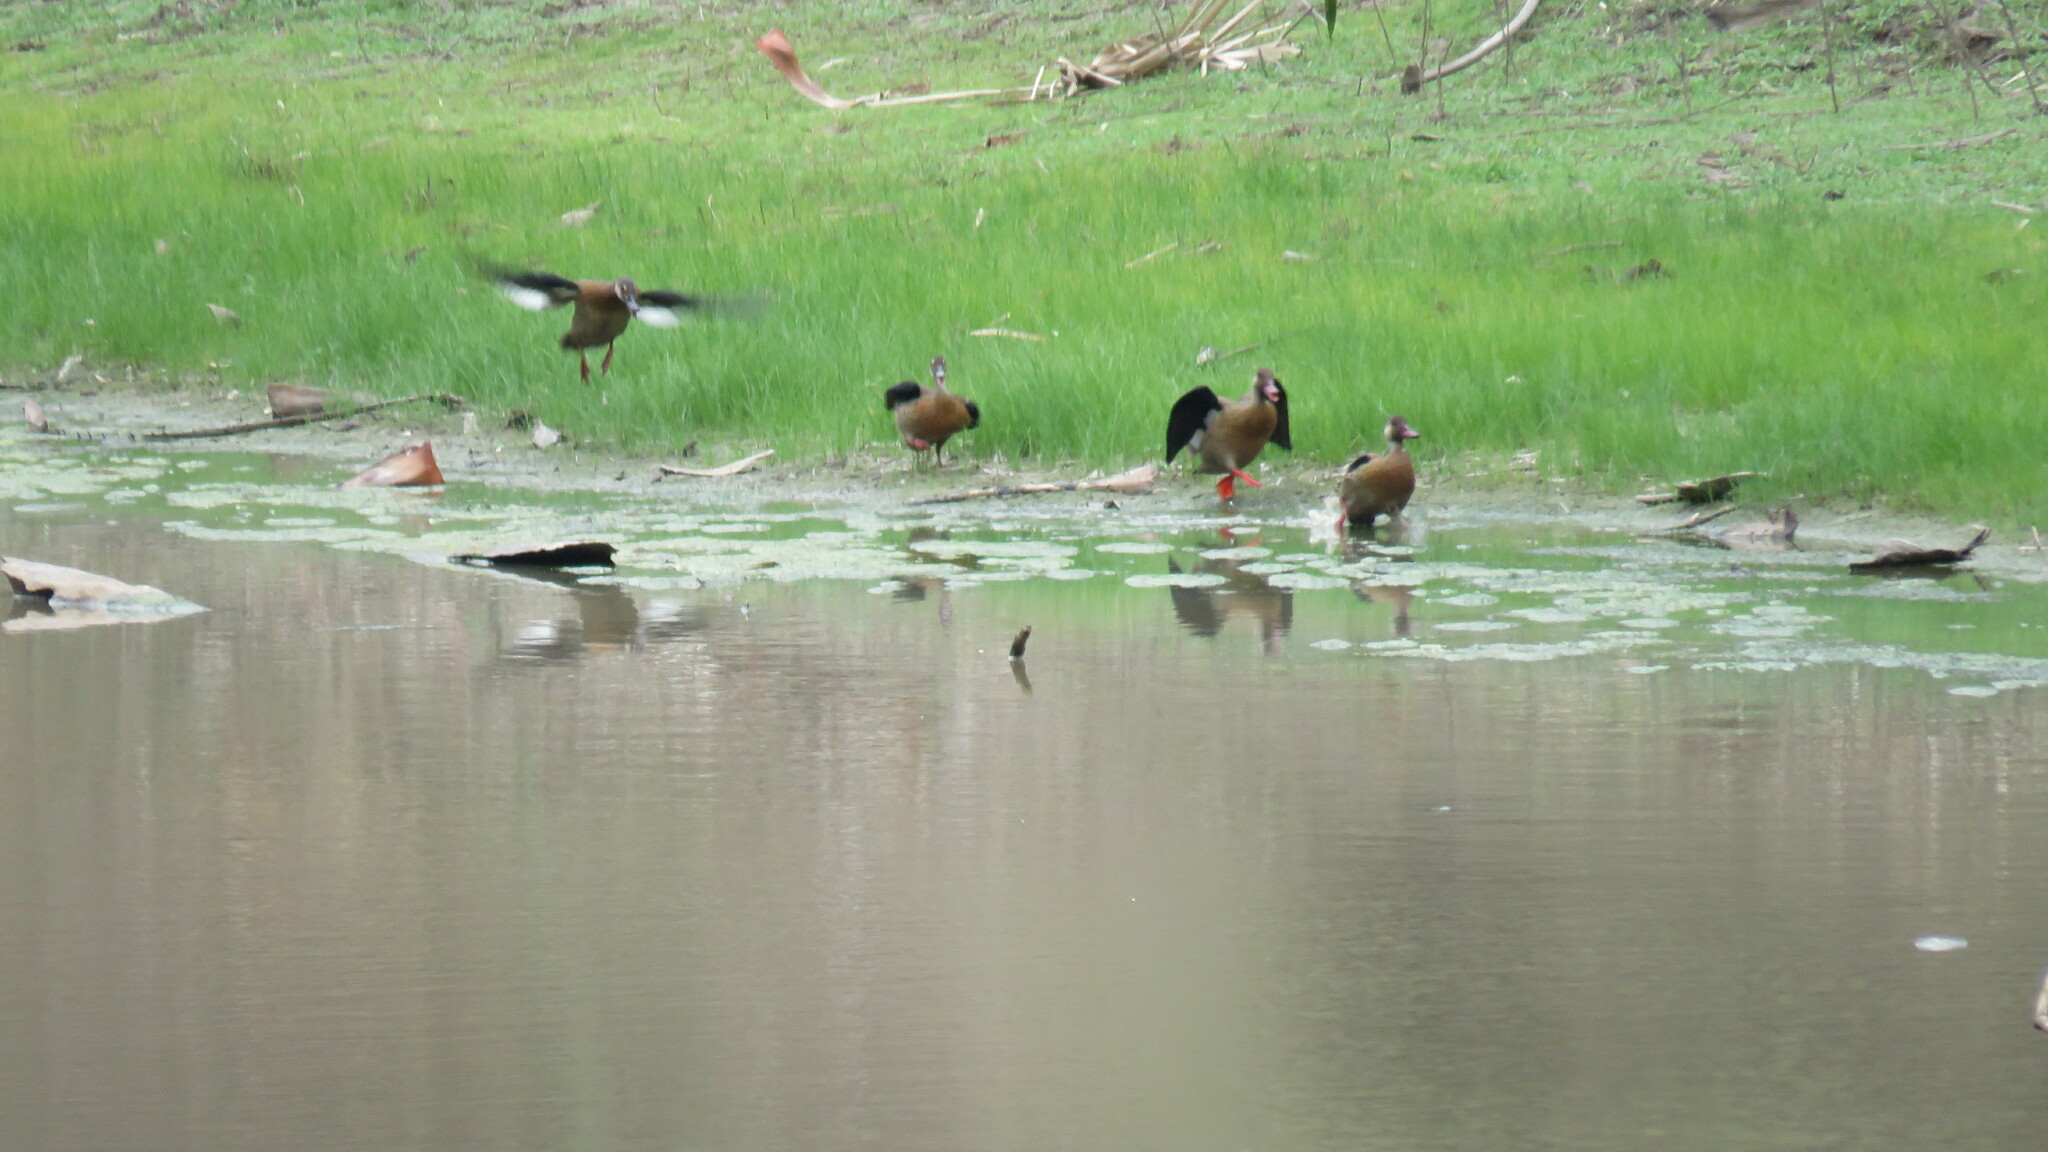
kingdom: Animalia
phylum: Chordata
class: Aves
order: Anseriformes
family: Anatidae
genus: Amazonetta
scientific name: Amazonetta brasiliensis
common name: Brazilian teal
